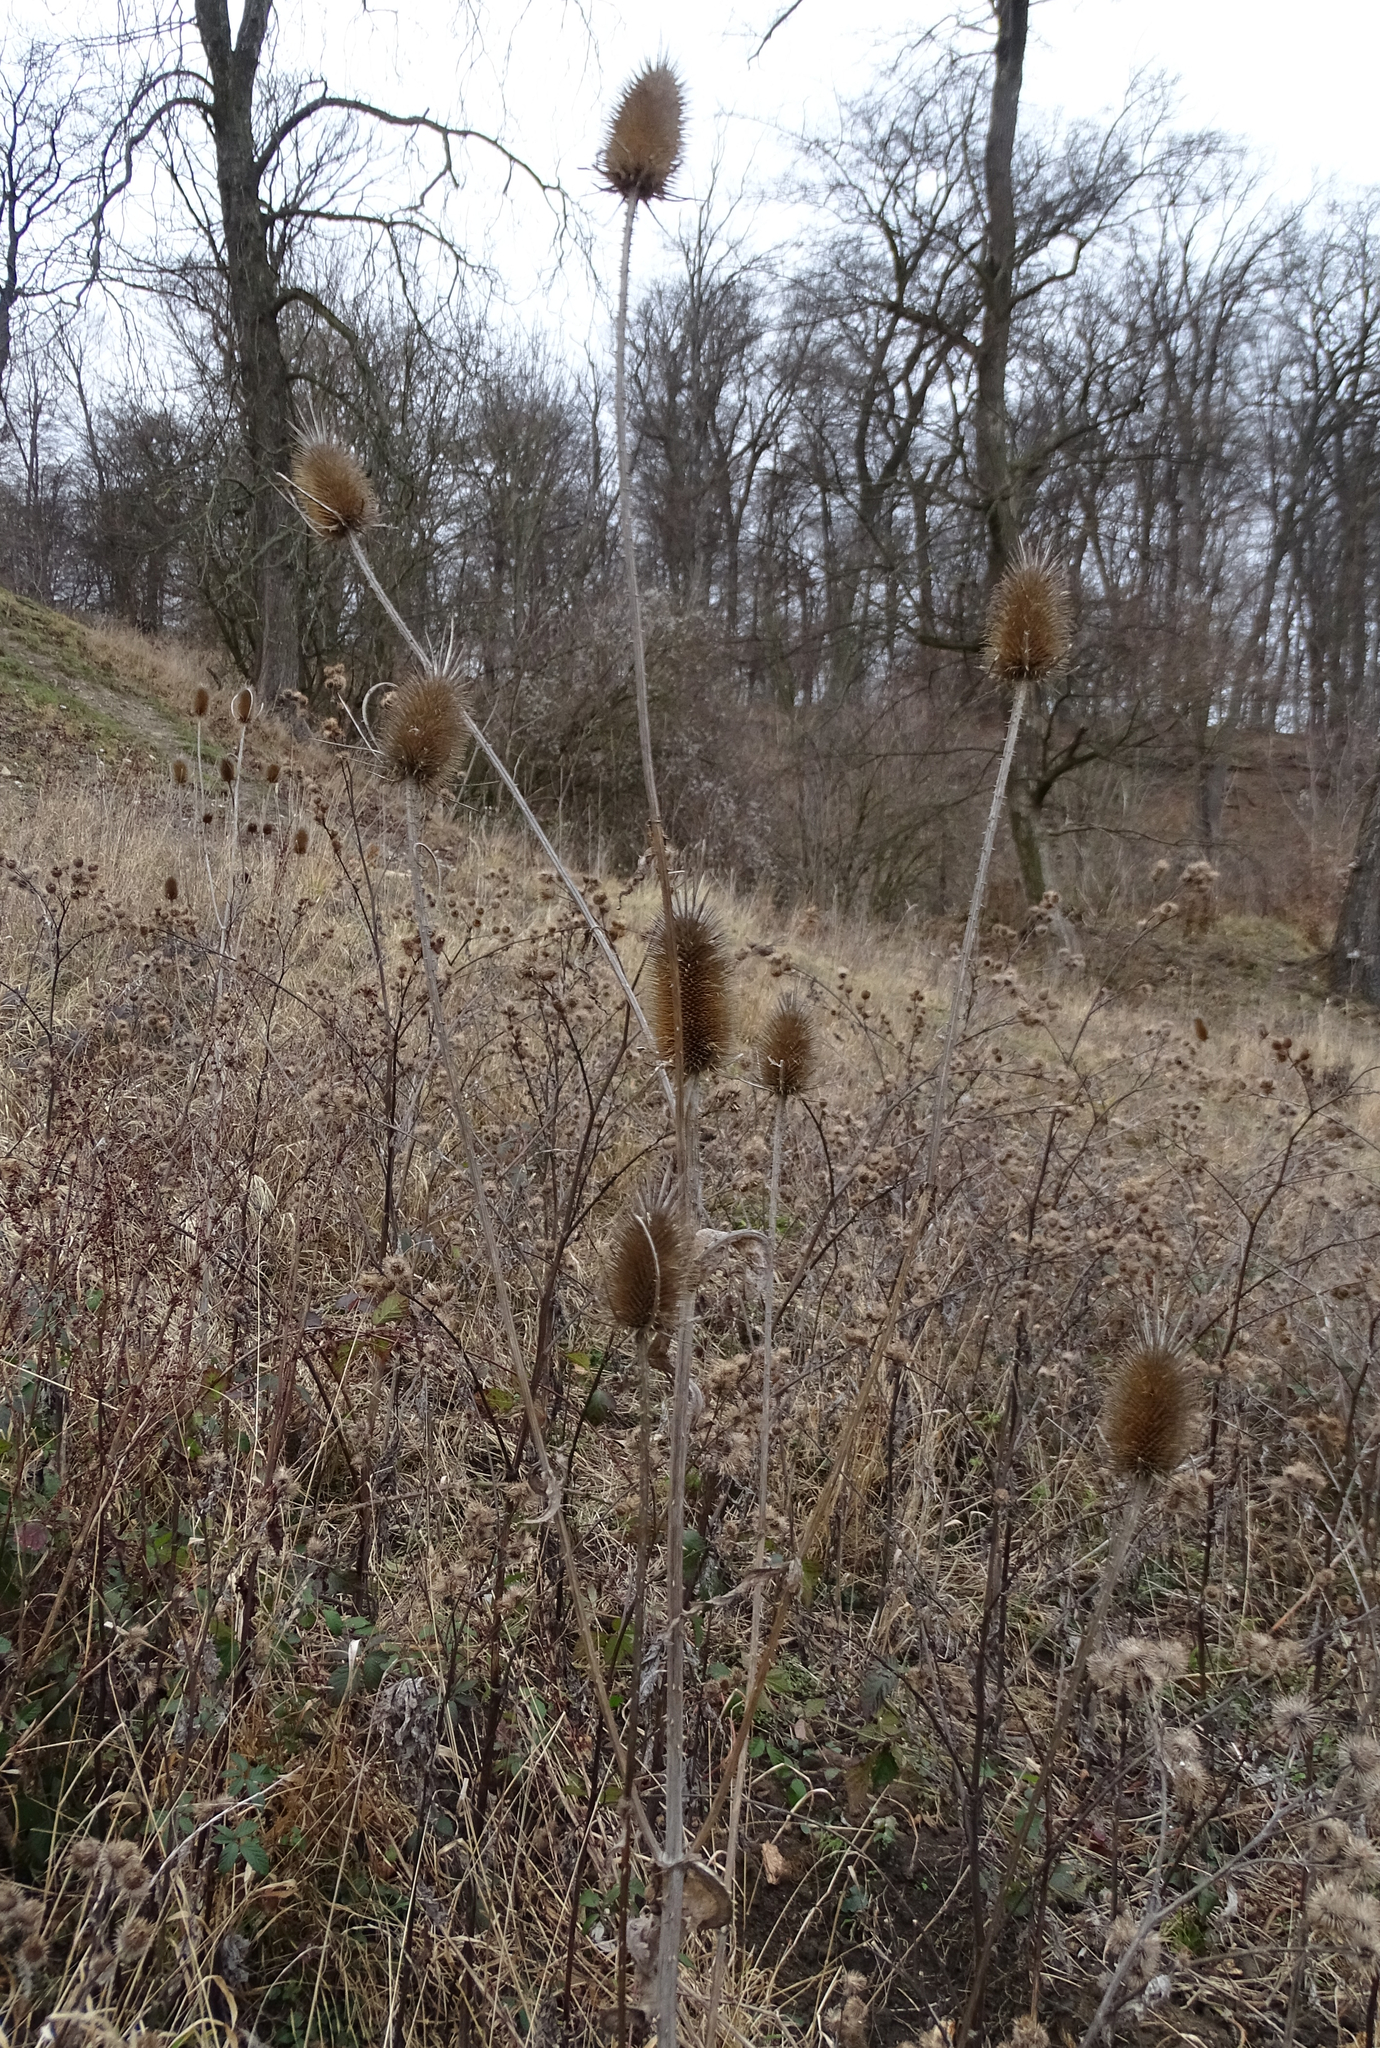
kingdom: Plantae
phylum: Tracheophyta
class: Magnoliopsida
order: Dipsacales
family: Caprifoliaceae
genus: Dipsacus
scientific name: Dipsacus fullonum
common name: Teasel
